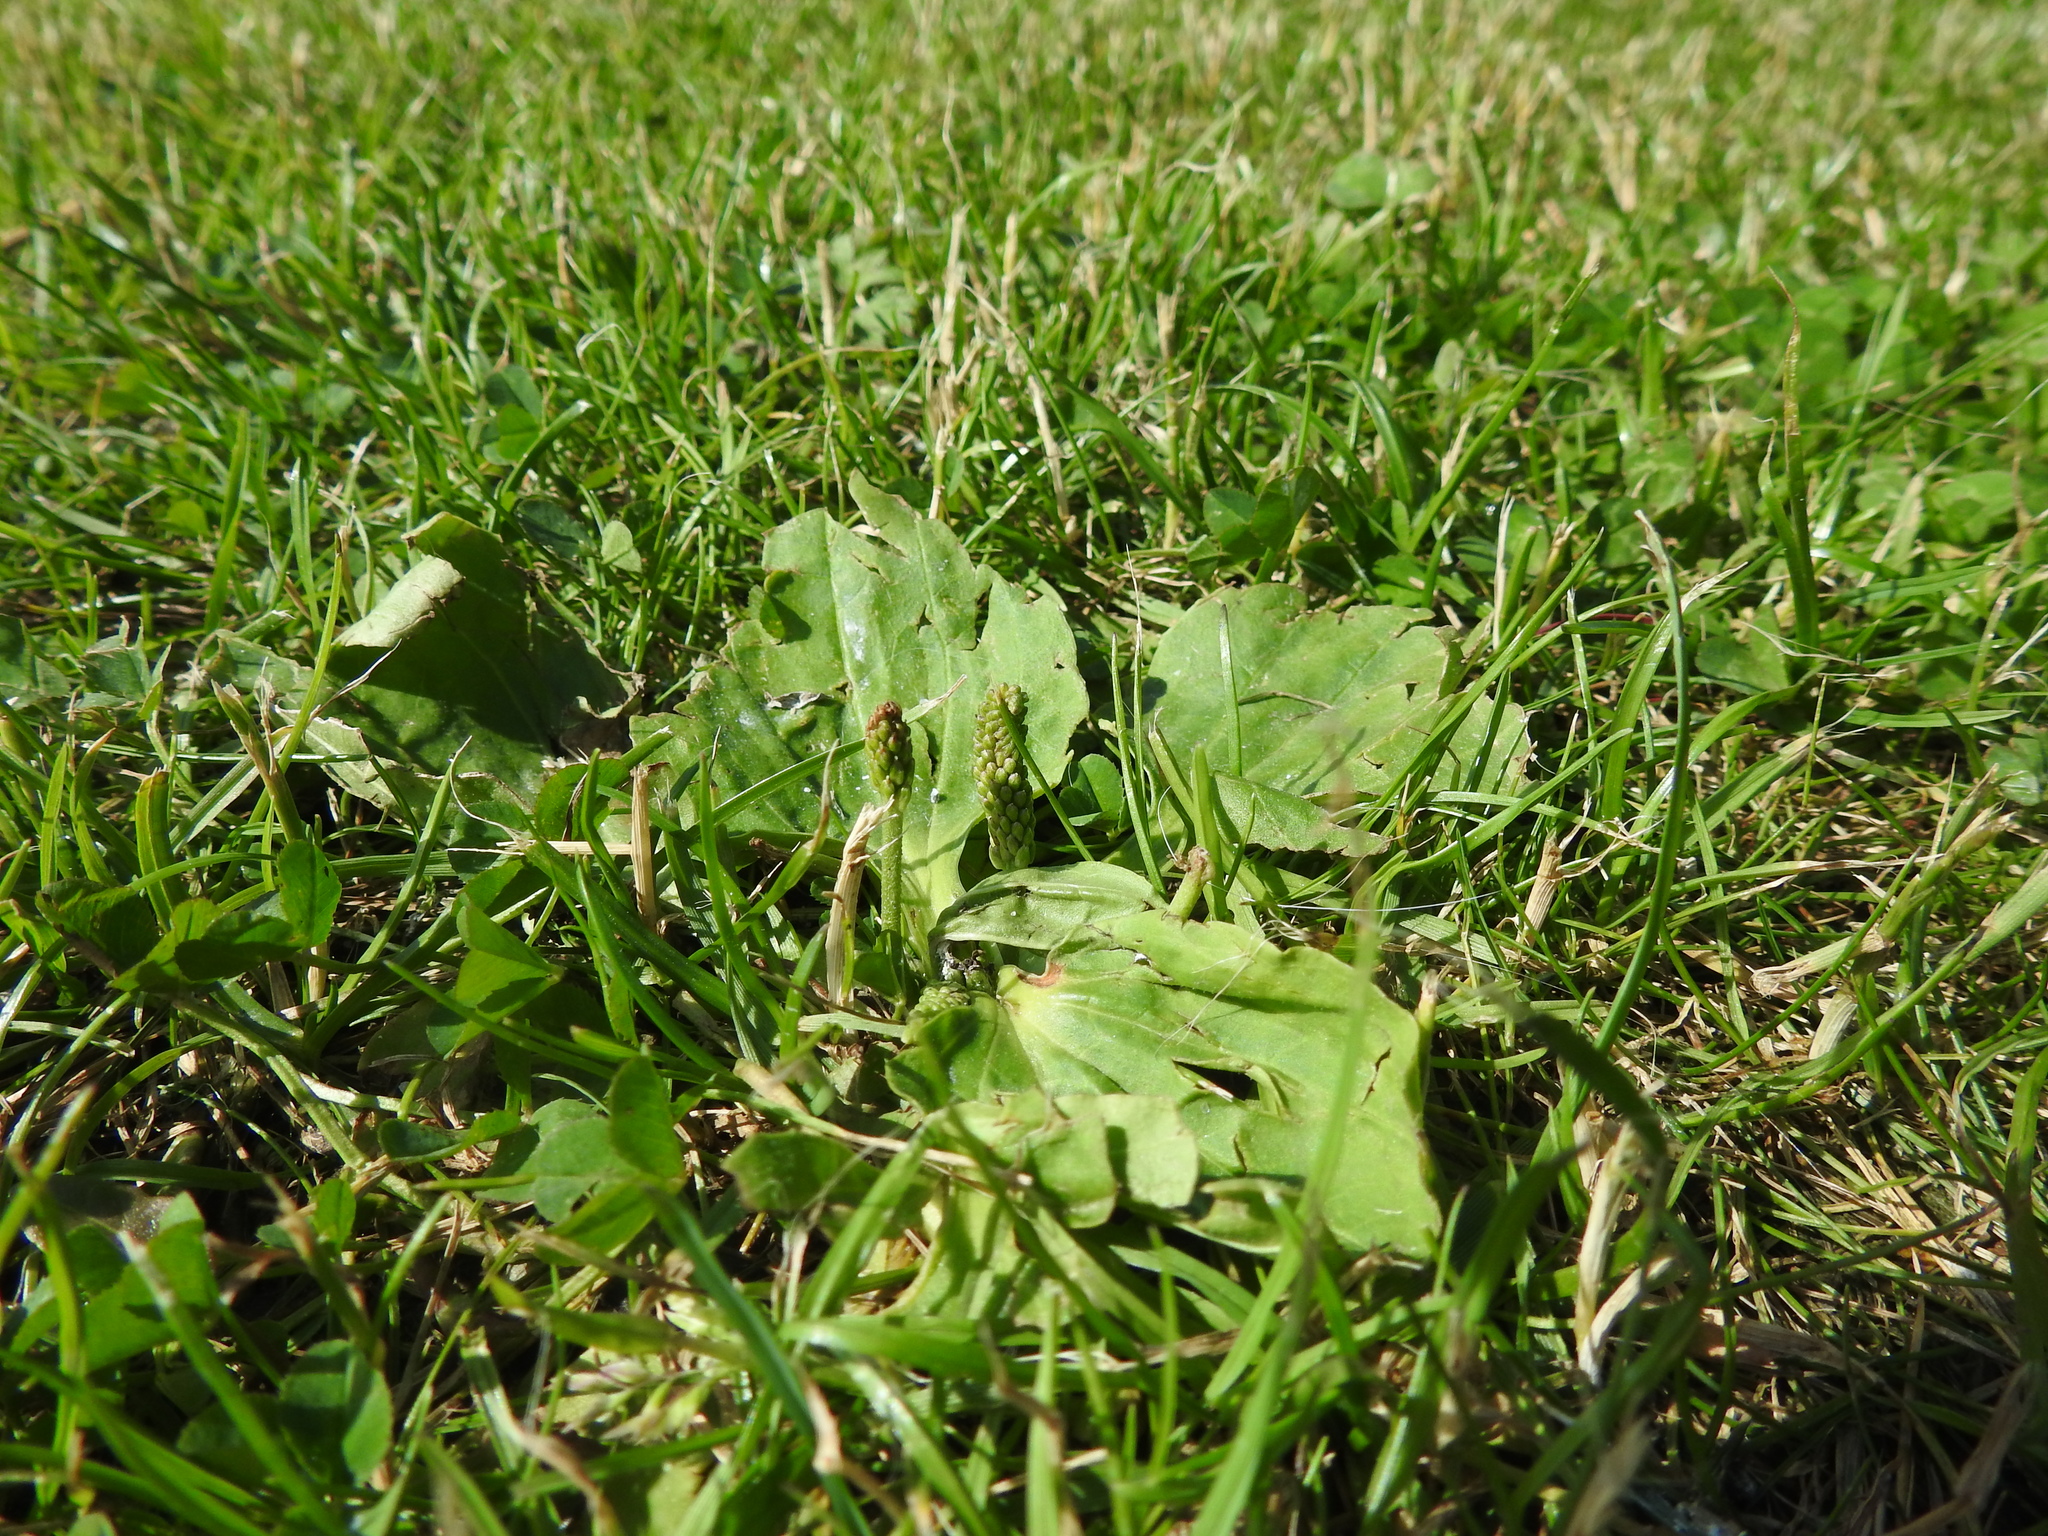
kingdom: Plantae
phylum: Tracheophyta
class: Magnoliopsida
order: Lamiales
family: Plantaginaceae
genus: Plantago
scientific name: Plantago major
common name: Common plantain
